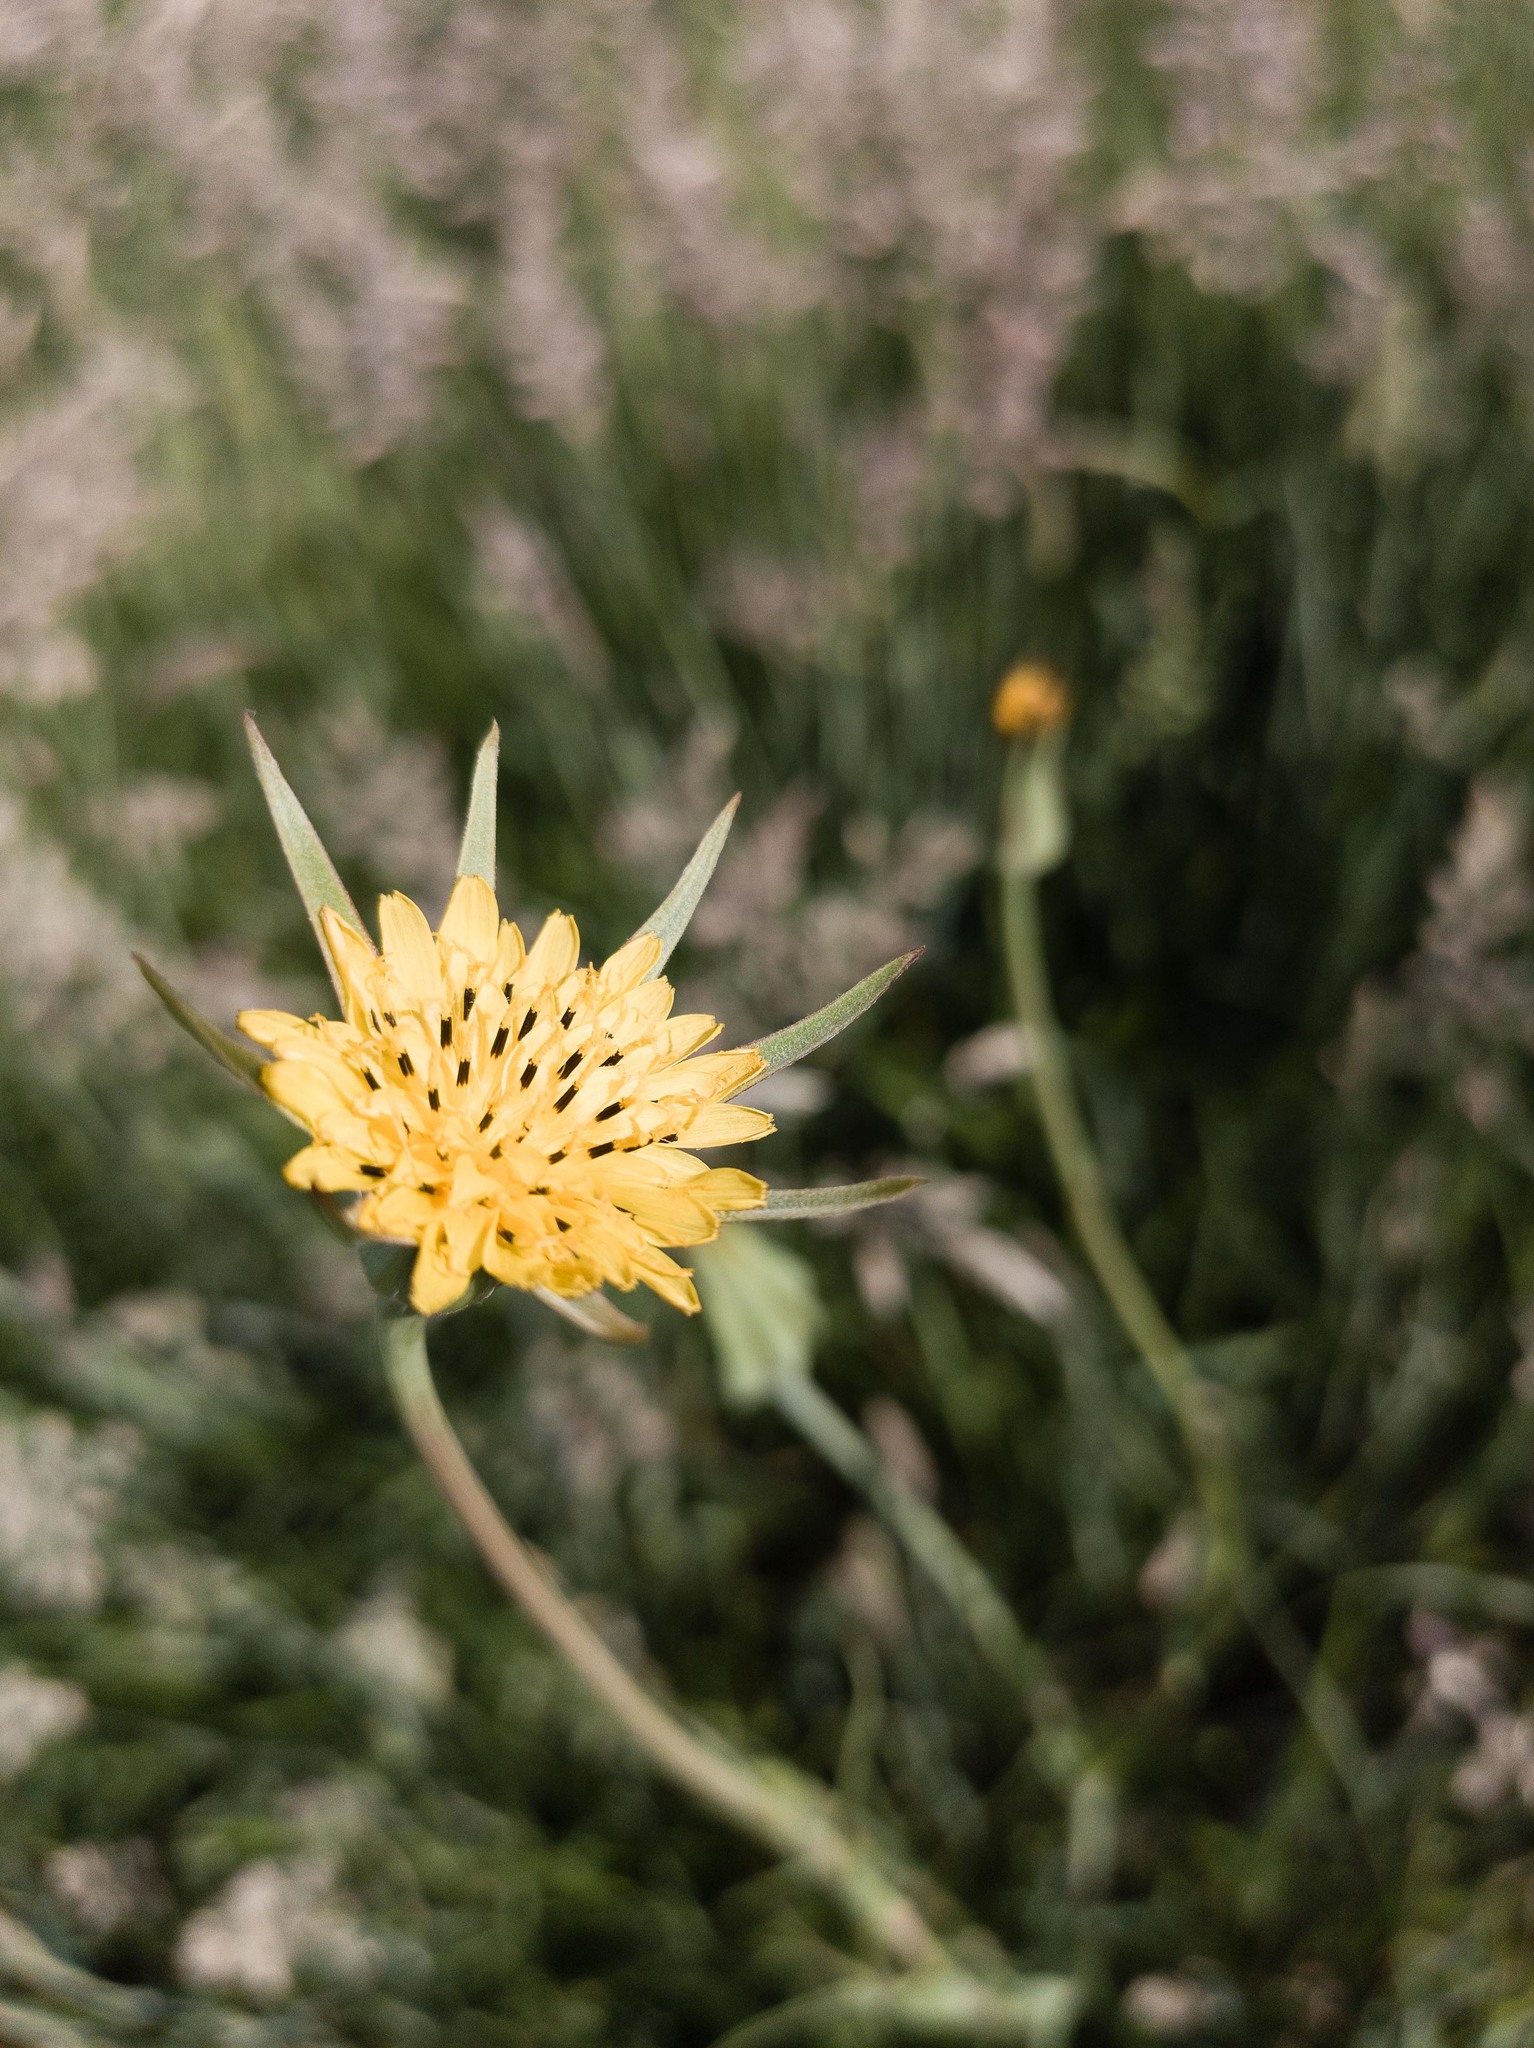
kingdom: Plantae
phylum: Tracheophyta
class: Magnoliopsida
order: Asterales
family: Asteraceae
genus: Tragopogon
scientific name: Tragopogon minor
